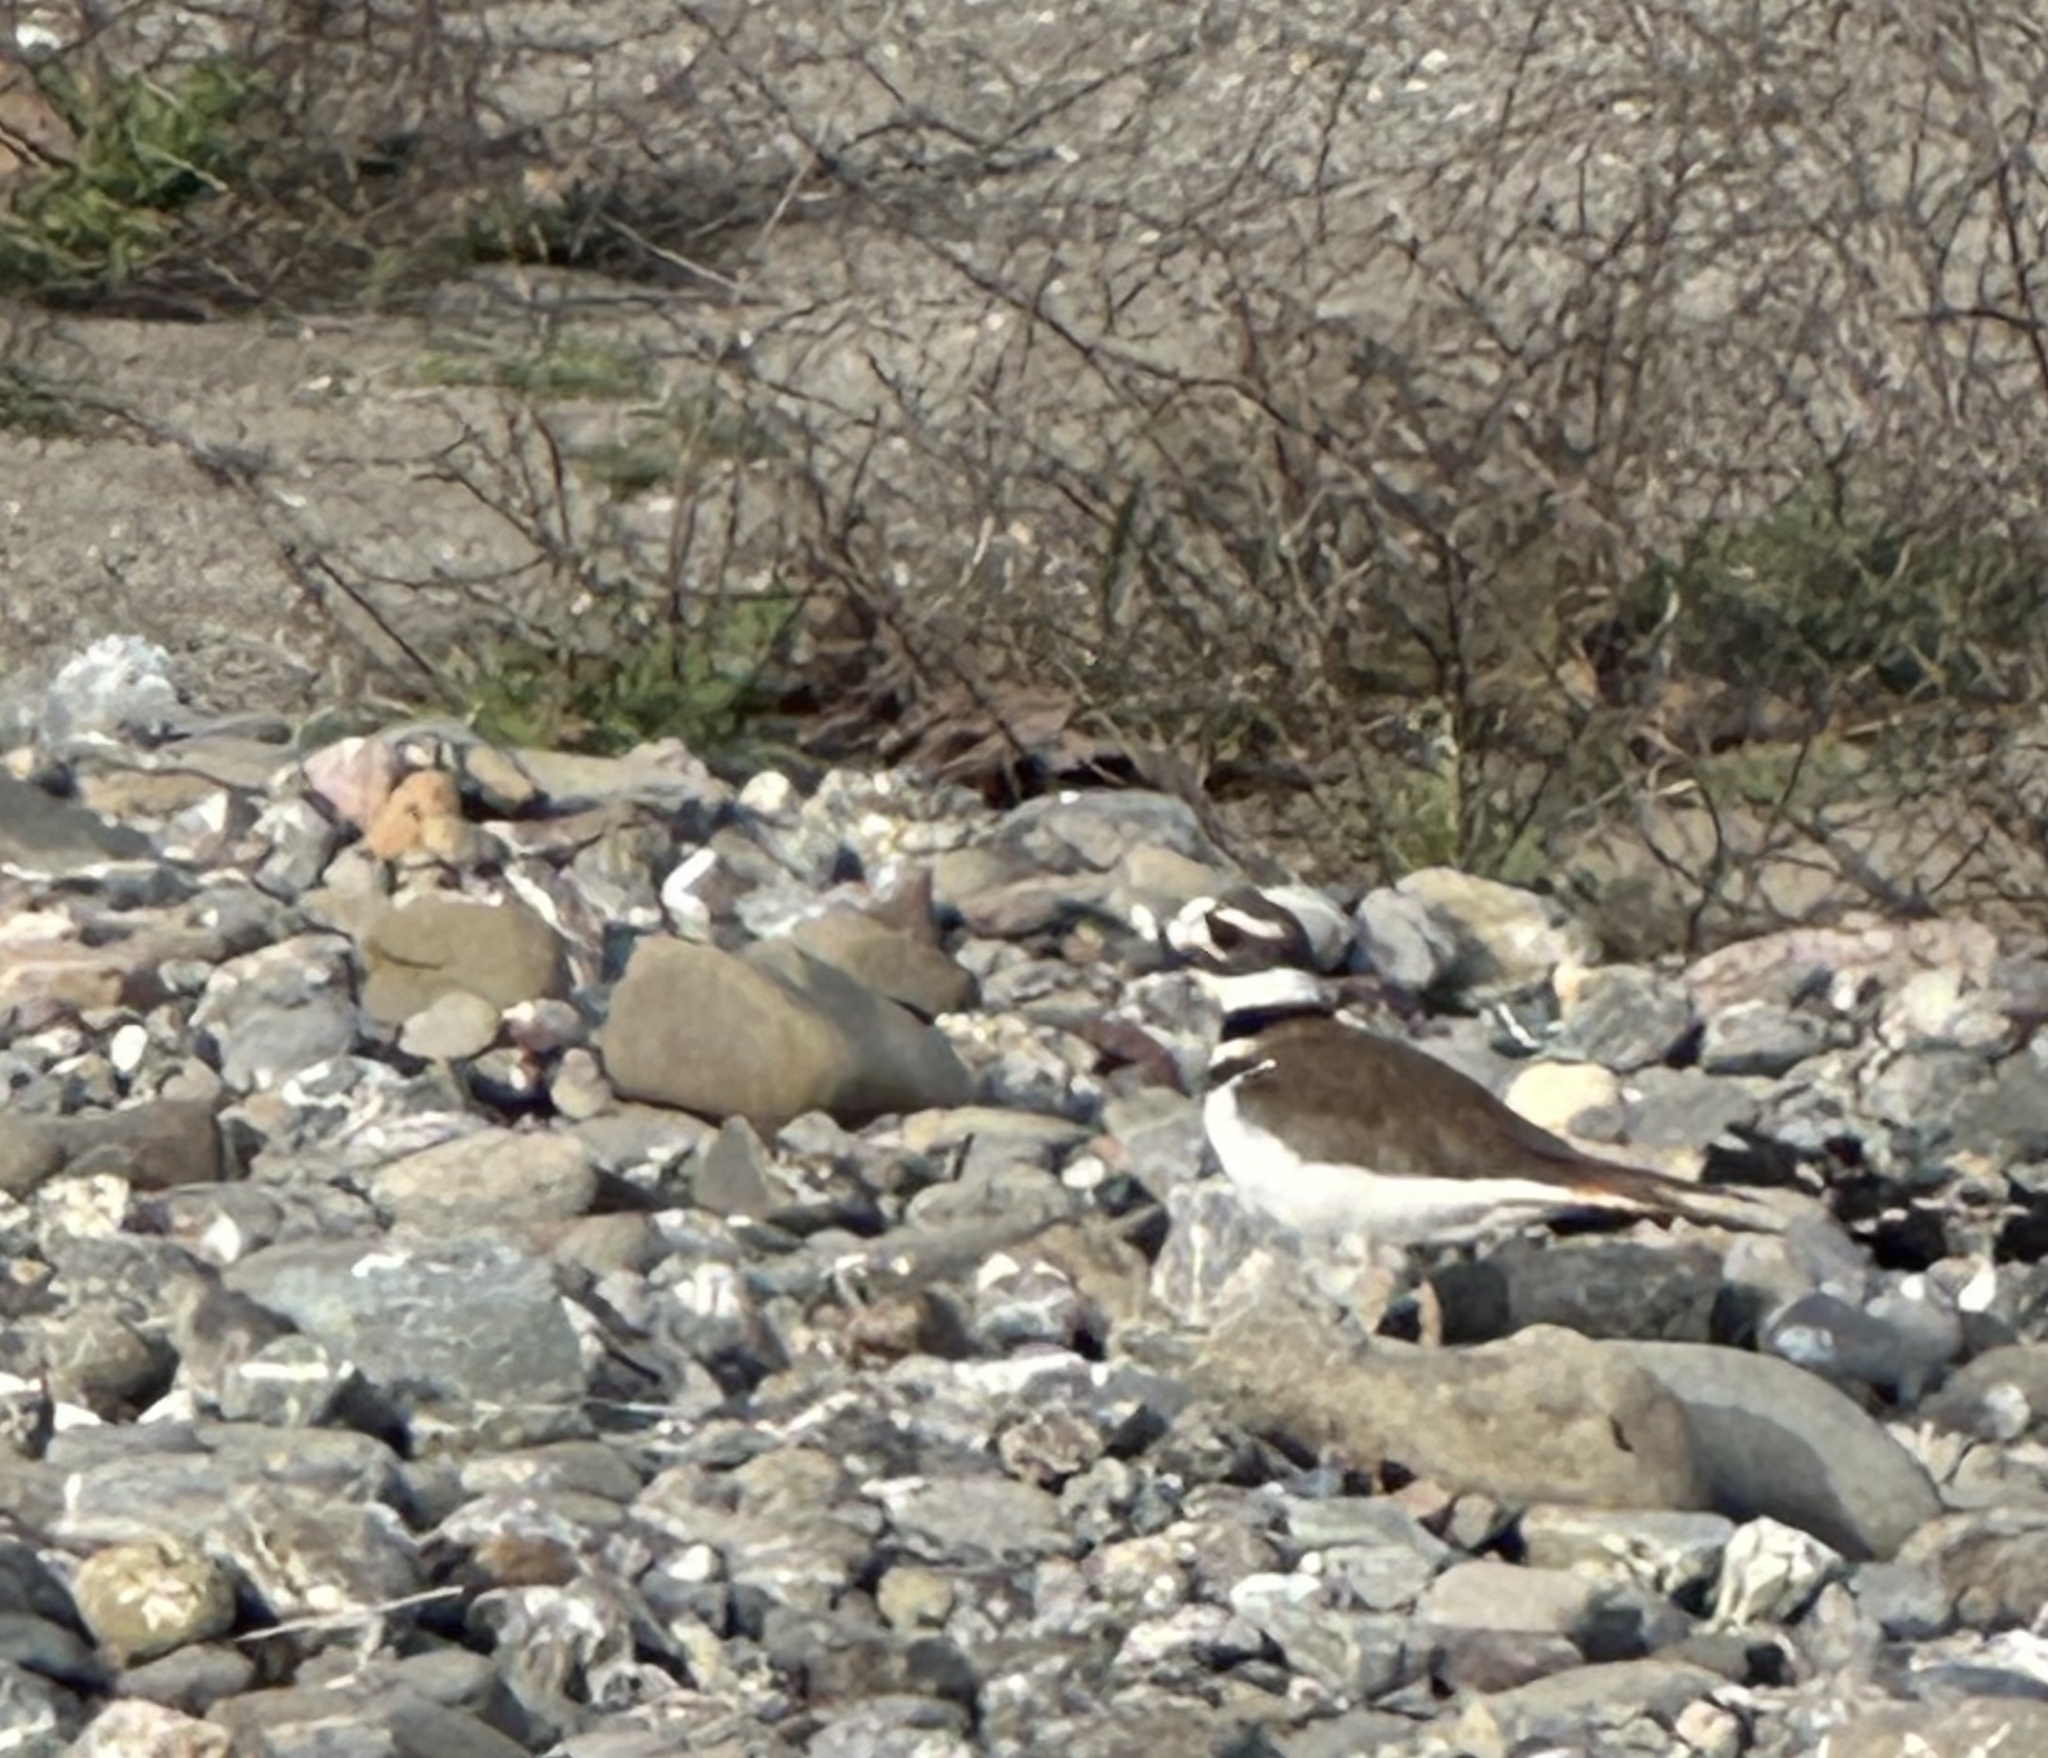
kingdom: Animalia
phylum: Chordata
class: Aves
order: Charadriiformes
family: Charadriidae
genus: Charadrius
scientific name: Charadrius vociferus
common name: Killdeer
